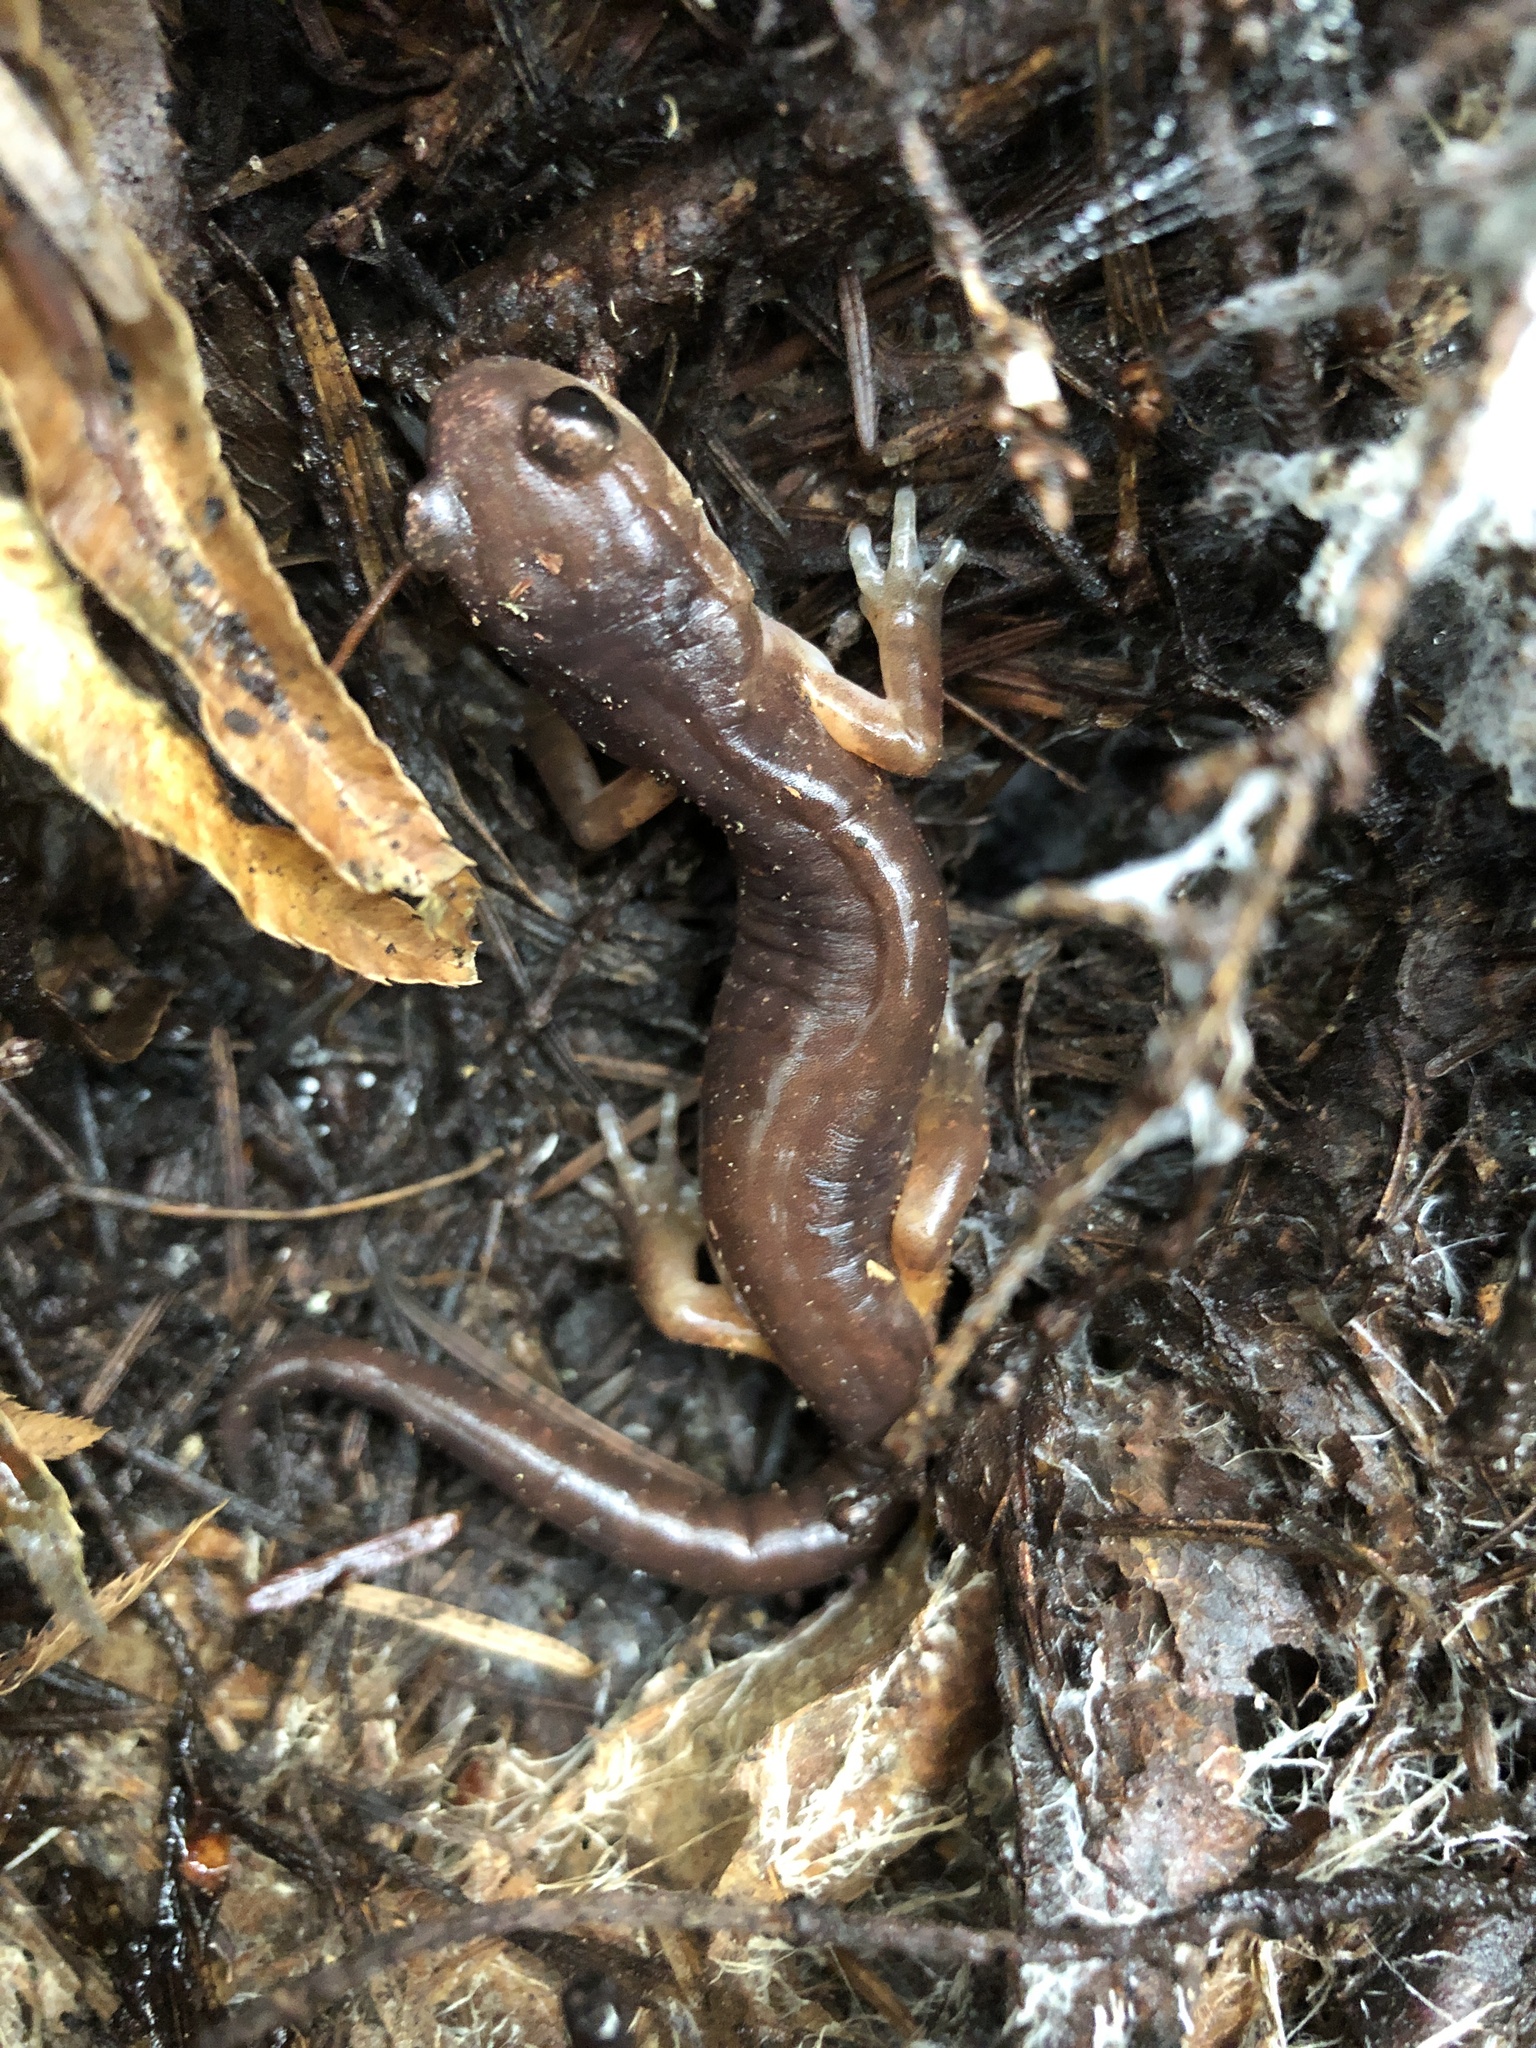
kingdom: Animalia
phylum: Chordata
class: Amphibia
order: Caudata
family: Plethodontidae
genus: Ensatina
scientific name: Ensatina eschscholtzii
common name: Ensatina
